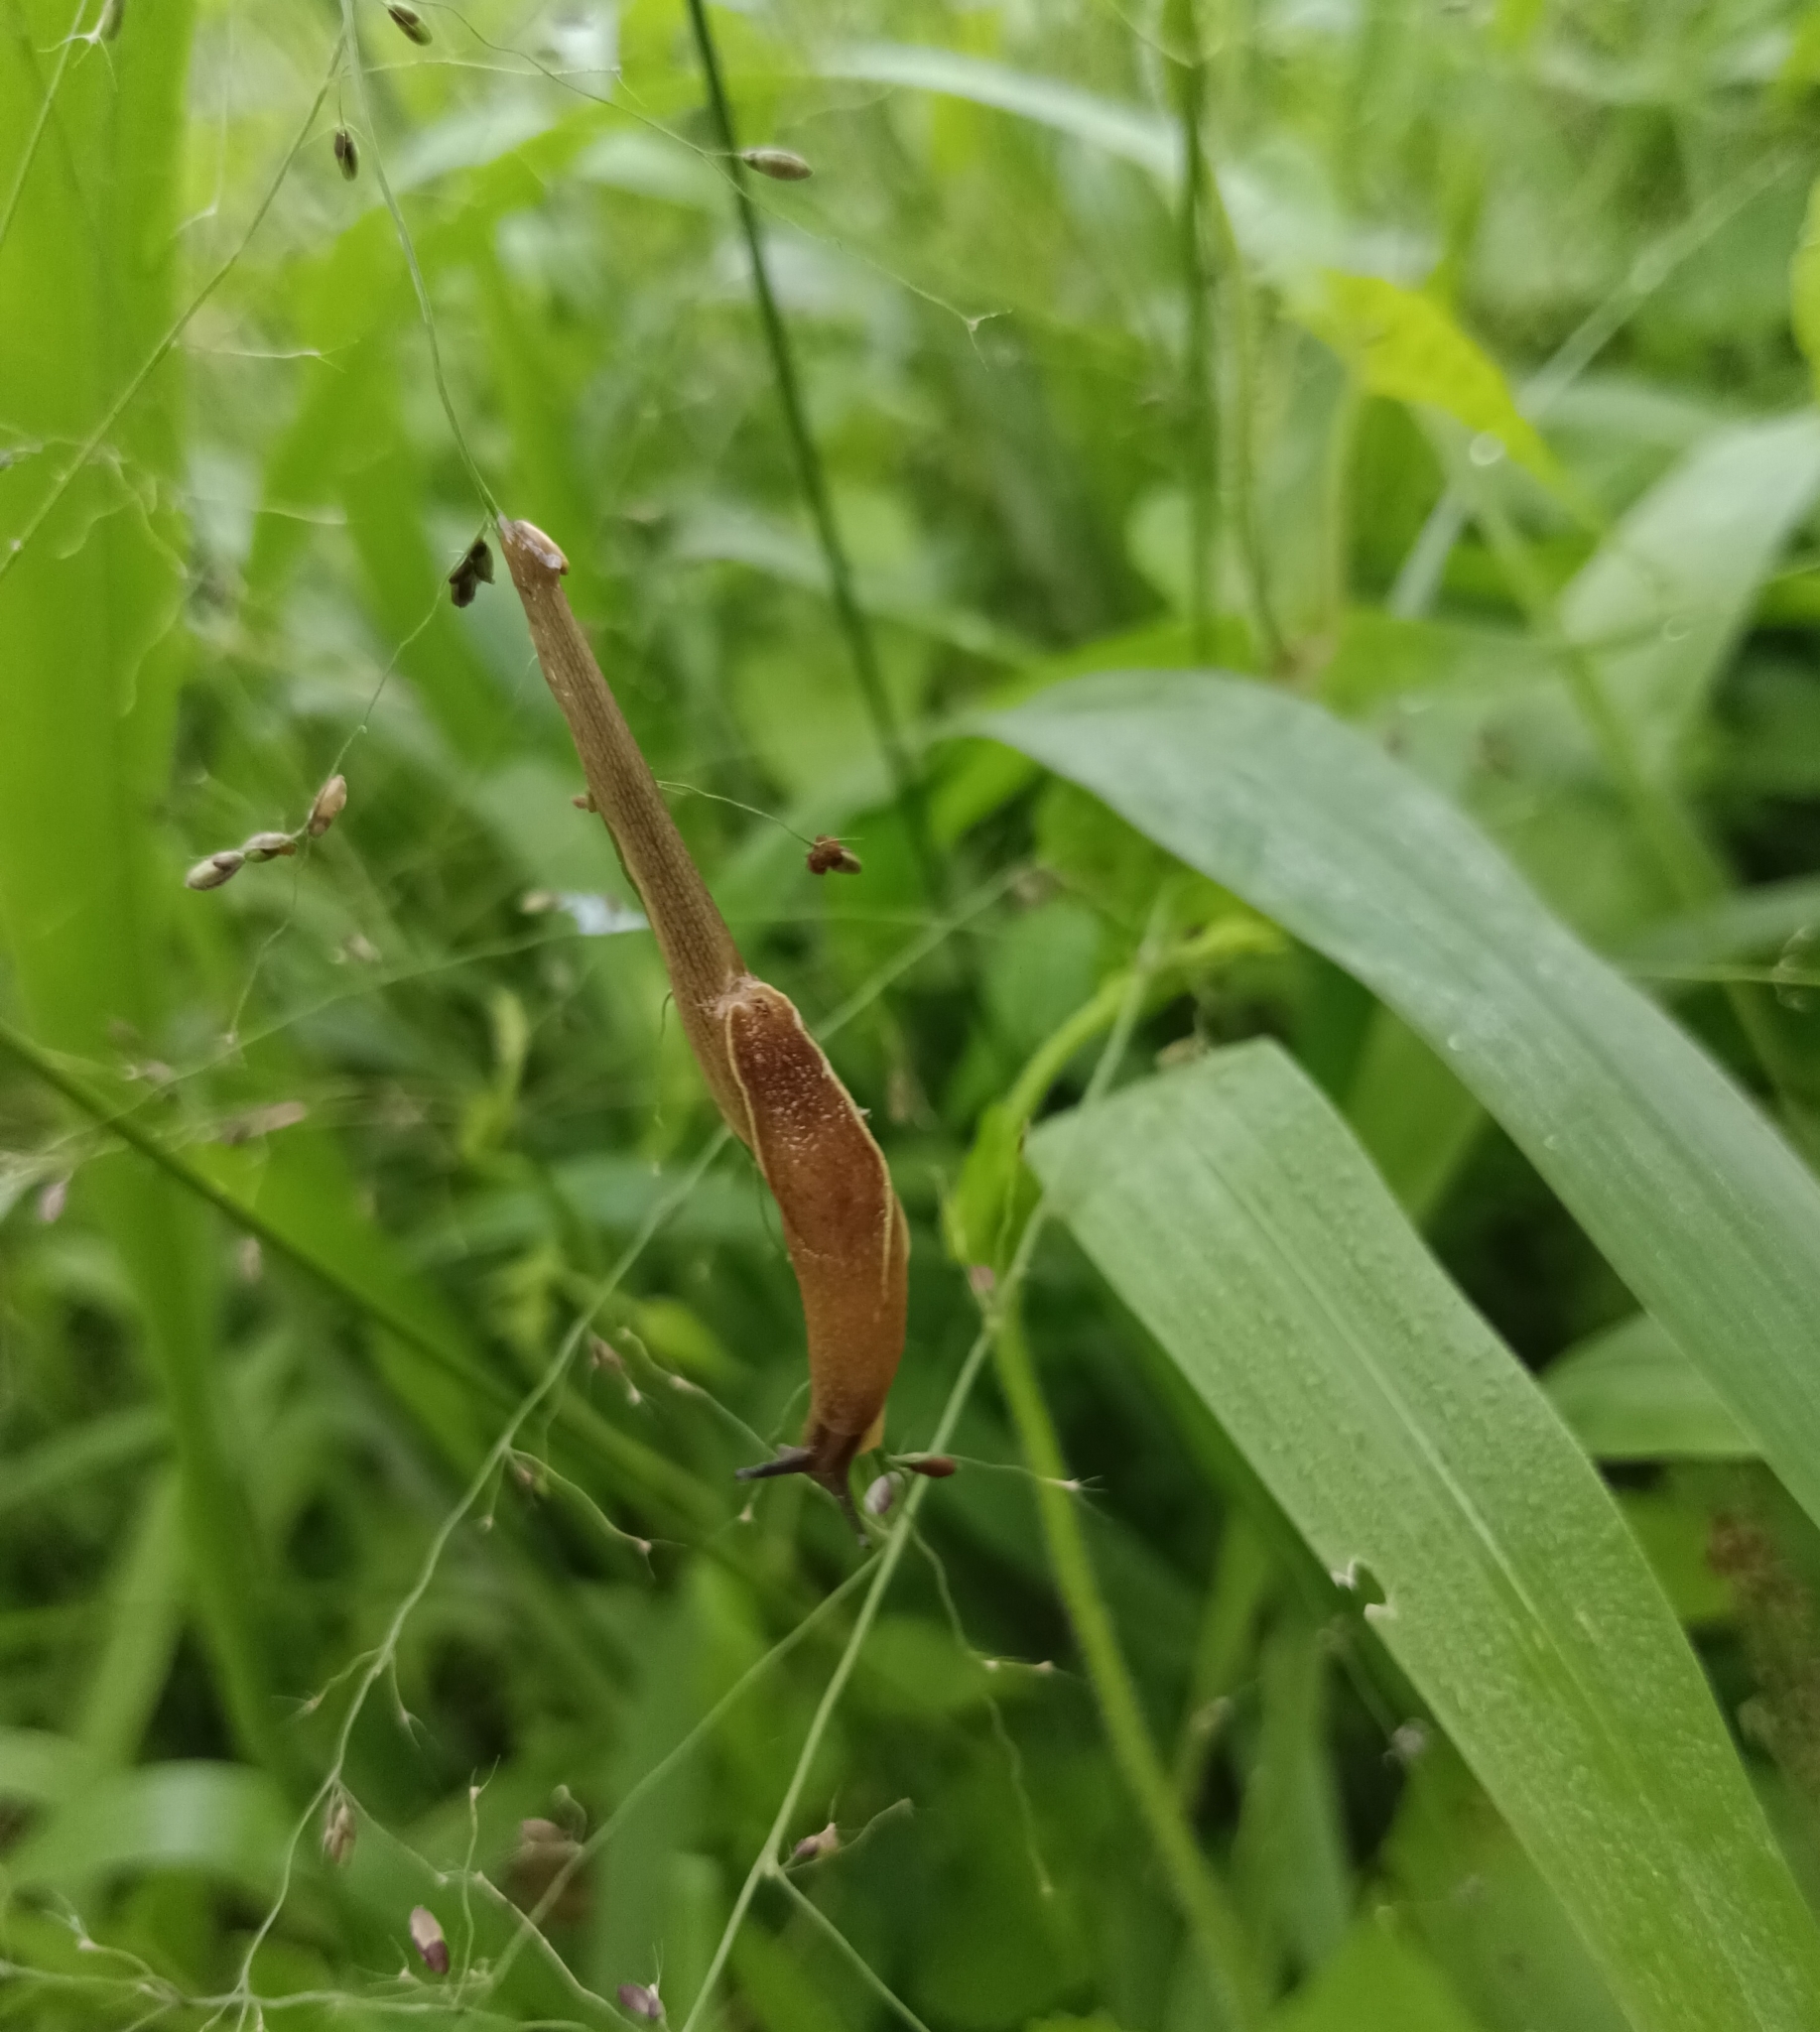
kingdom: Animalia
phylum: Mollusca
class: Gastropoda
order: Stylommatophora
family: Ariophantidae
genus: Mariaella
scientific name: Mariaella dussumieri
